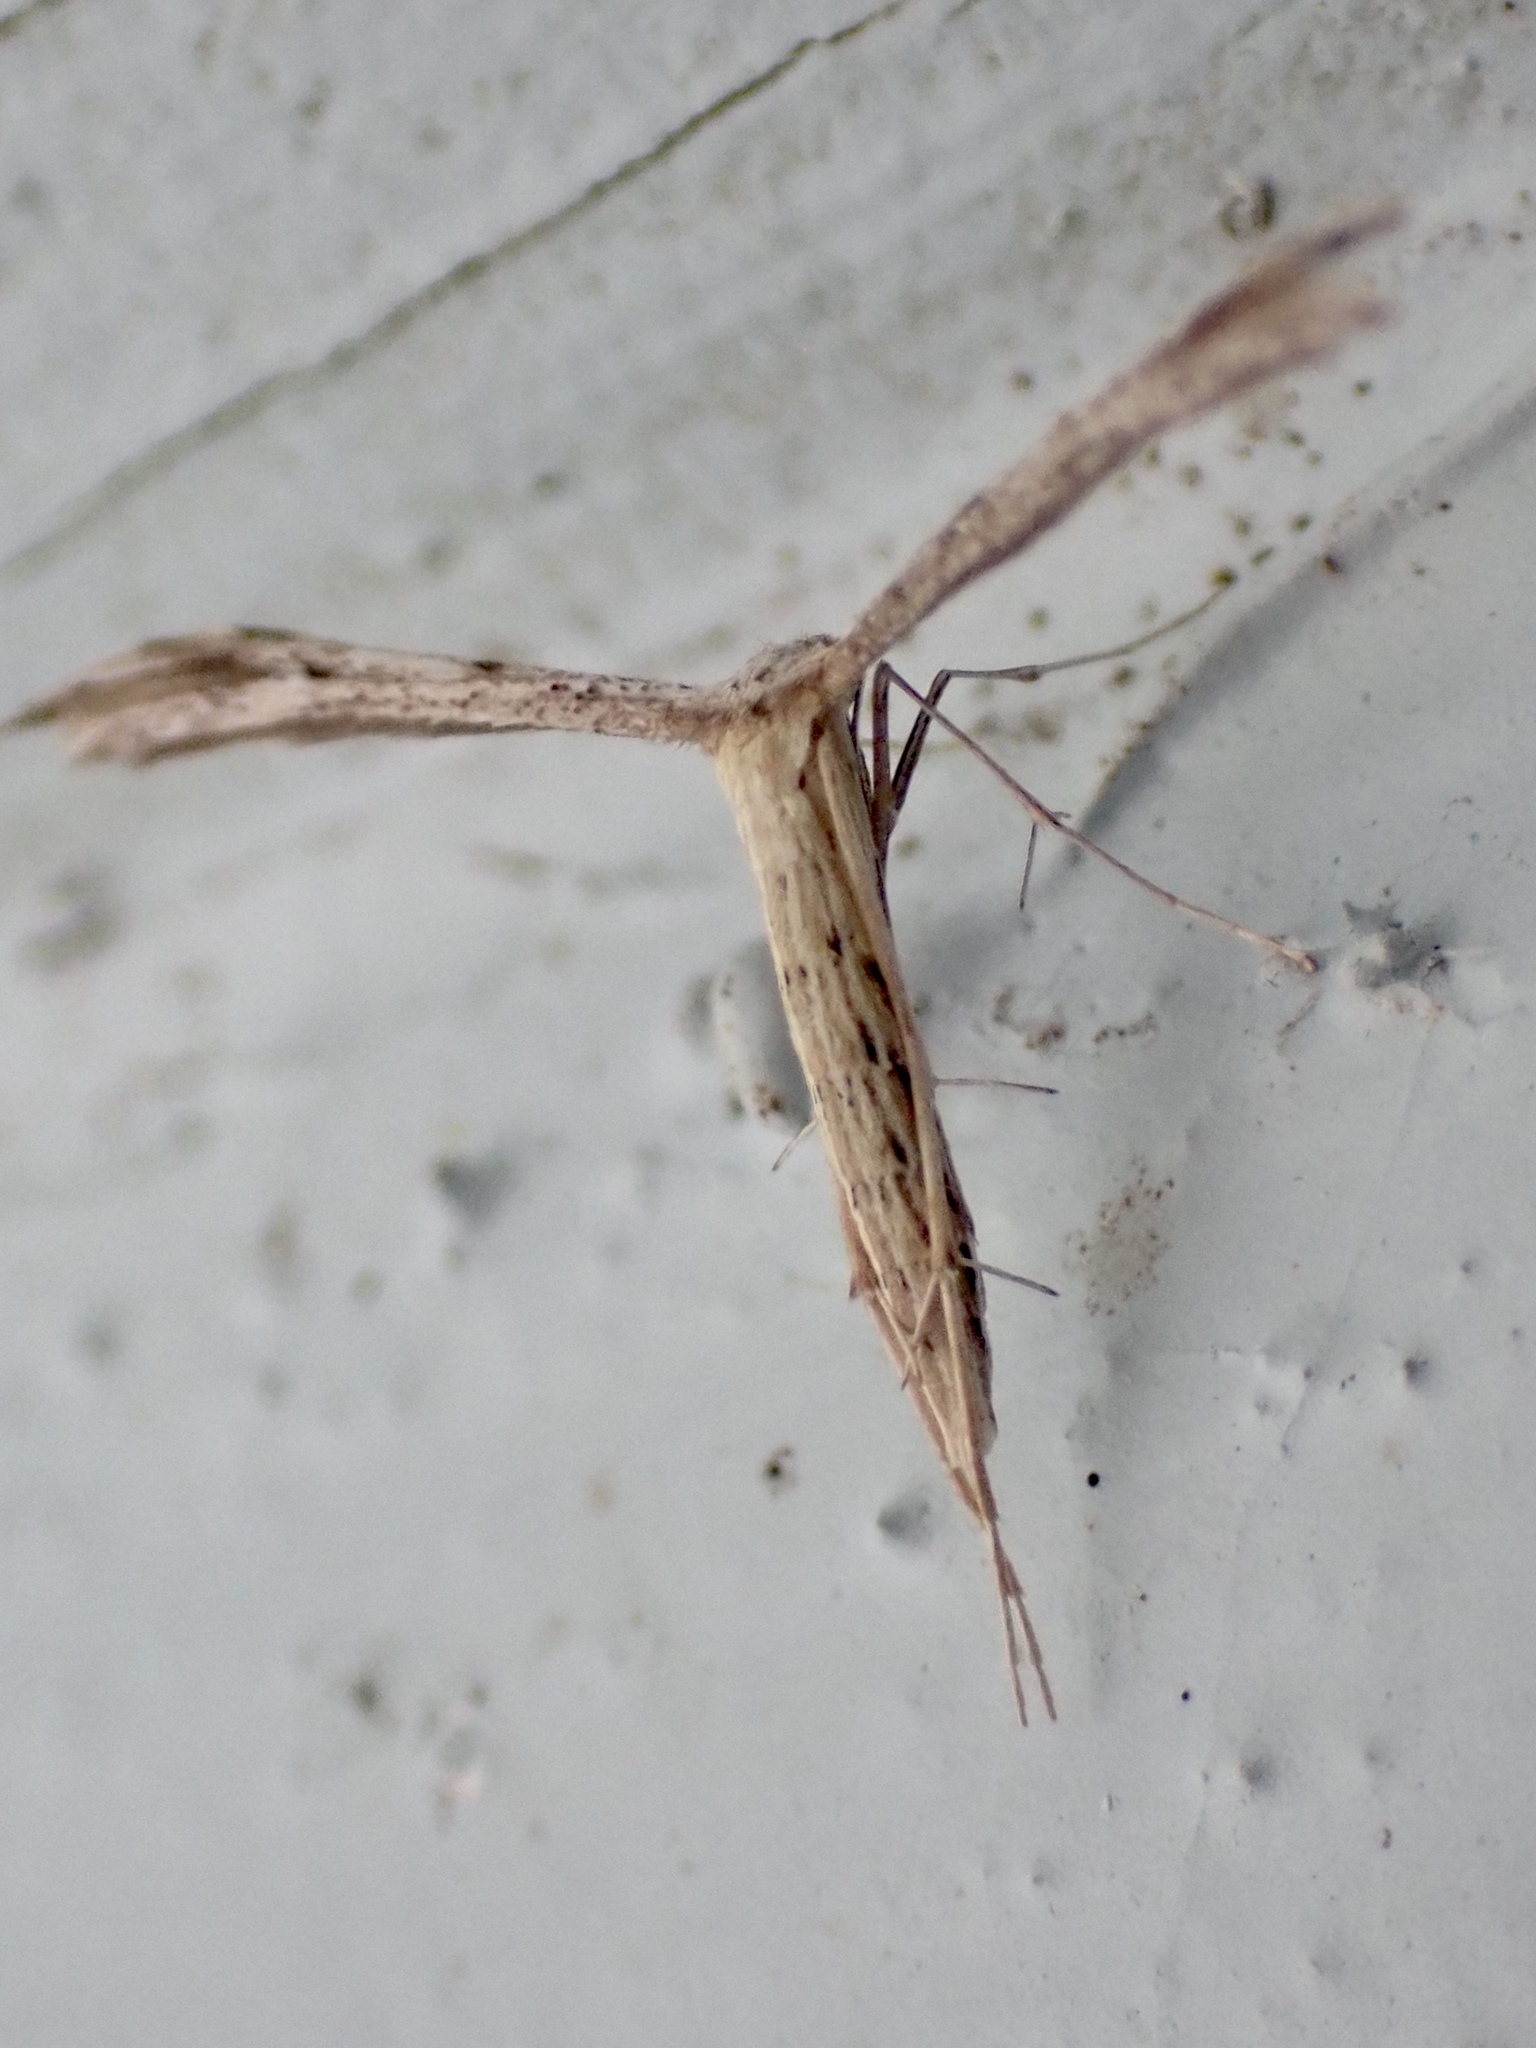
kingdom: Animalia
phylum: Arthropoda
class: Insecta
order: Lepidoptera
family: Pterophoridae
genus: Pselnophorus
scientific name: Pselnophorus belfragei
